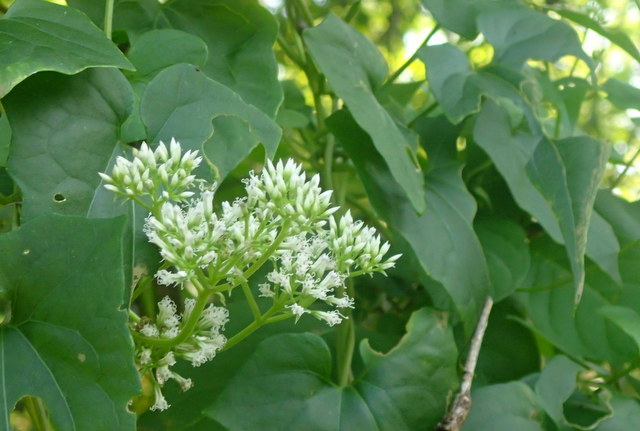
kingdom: Plantae
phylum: Tracheophyta
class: Magnoliopsida
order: Asterales
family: Asteraceae
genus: Mikania
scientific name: Mikania scandens
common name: Climbing hempvine
